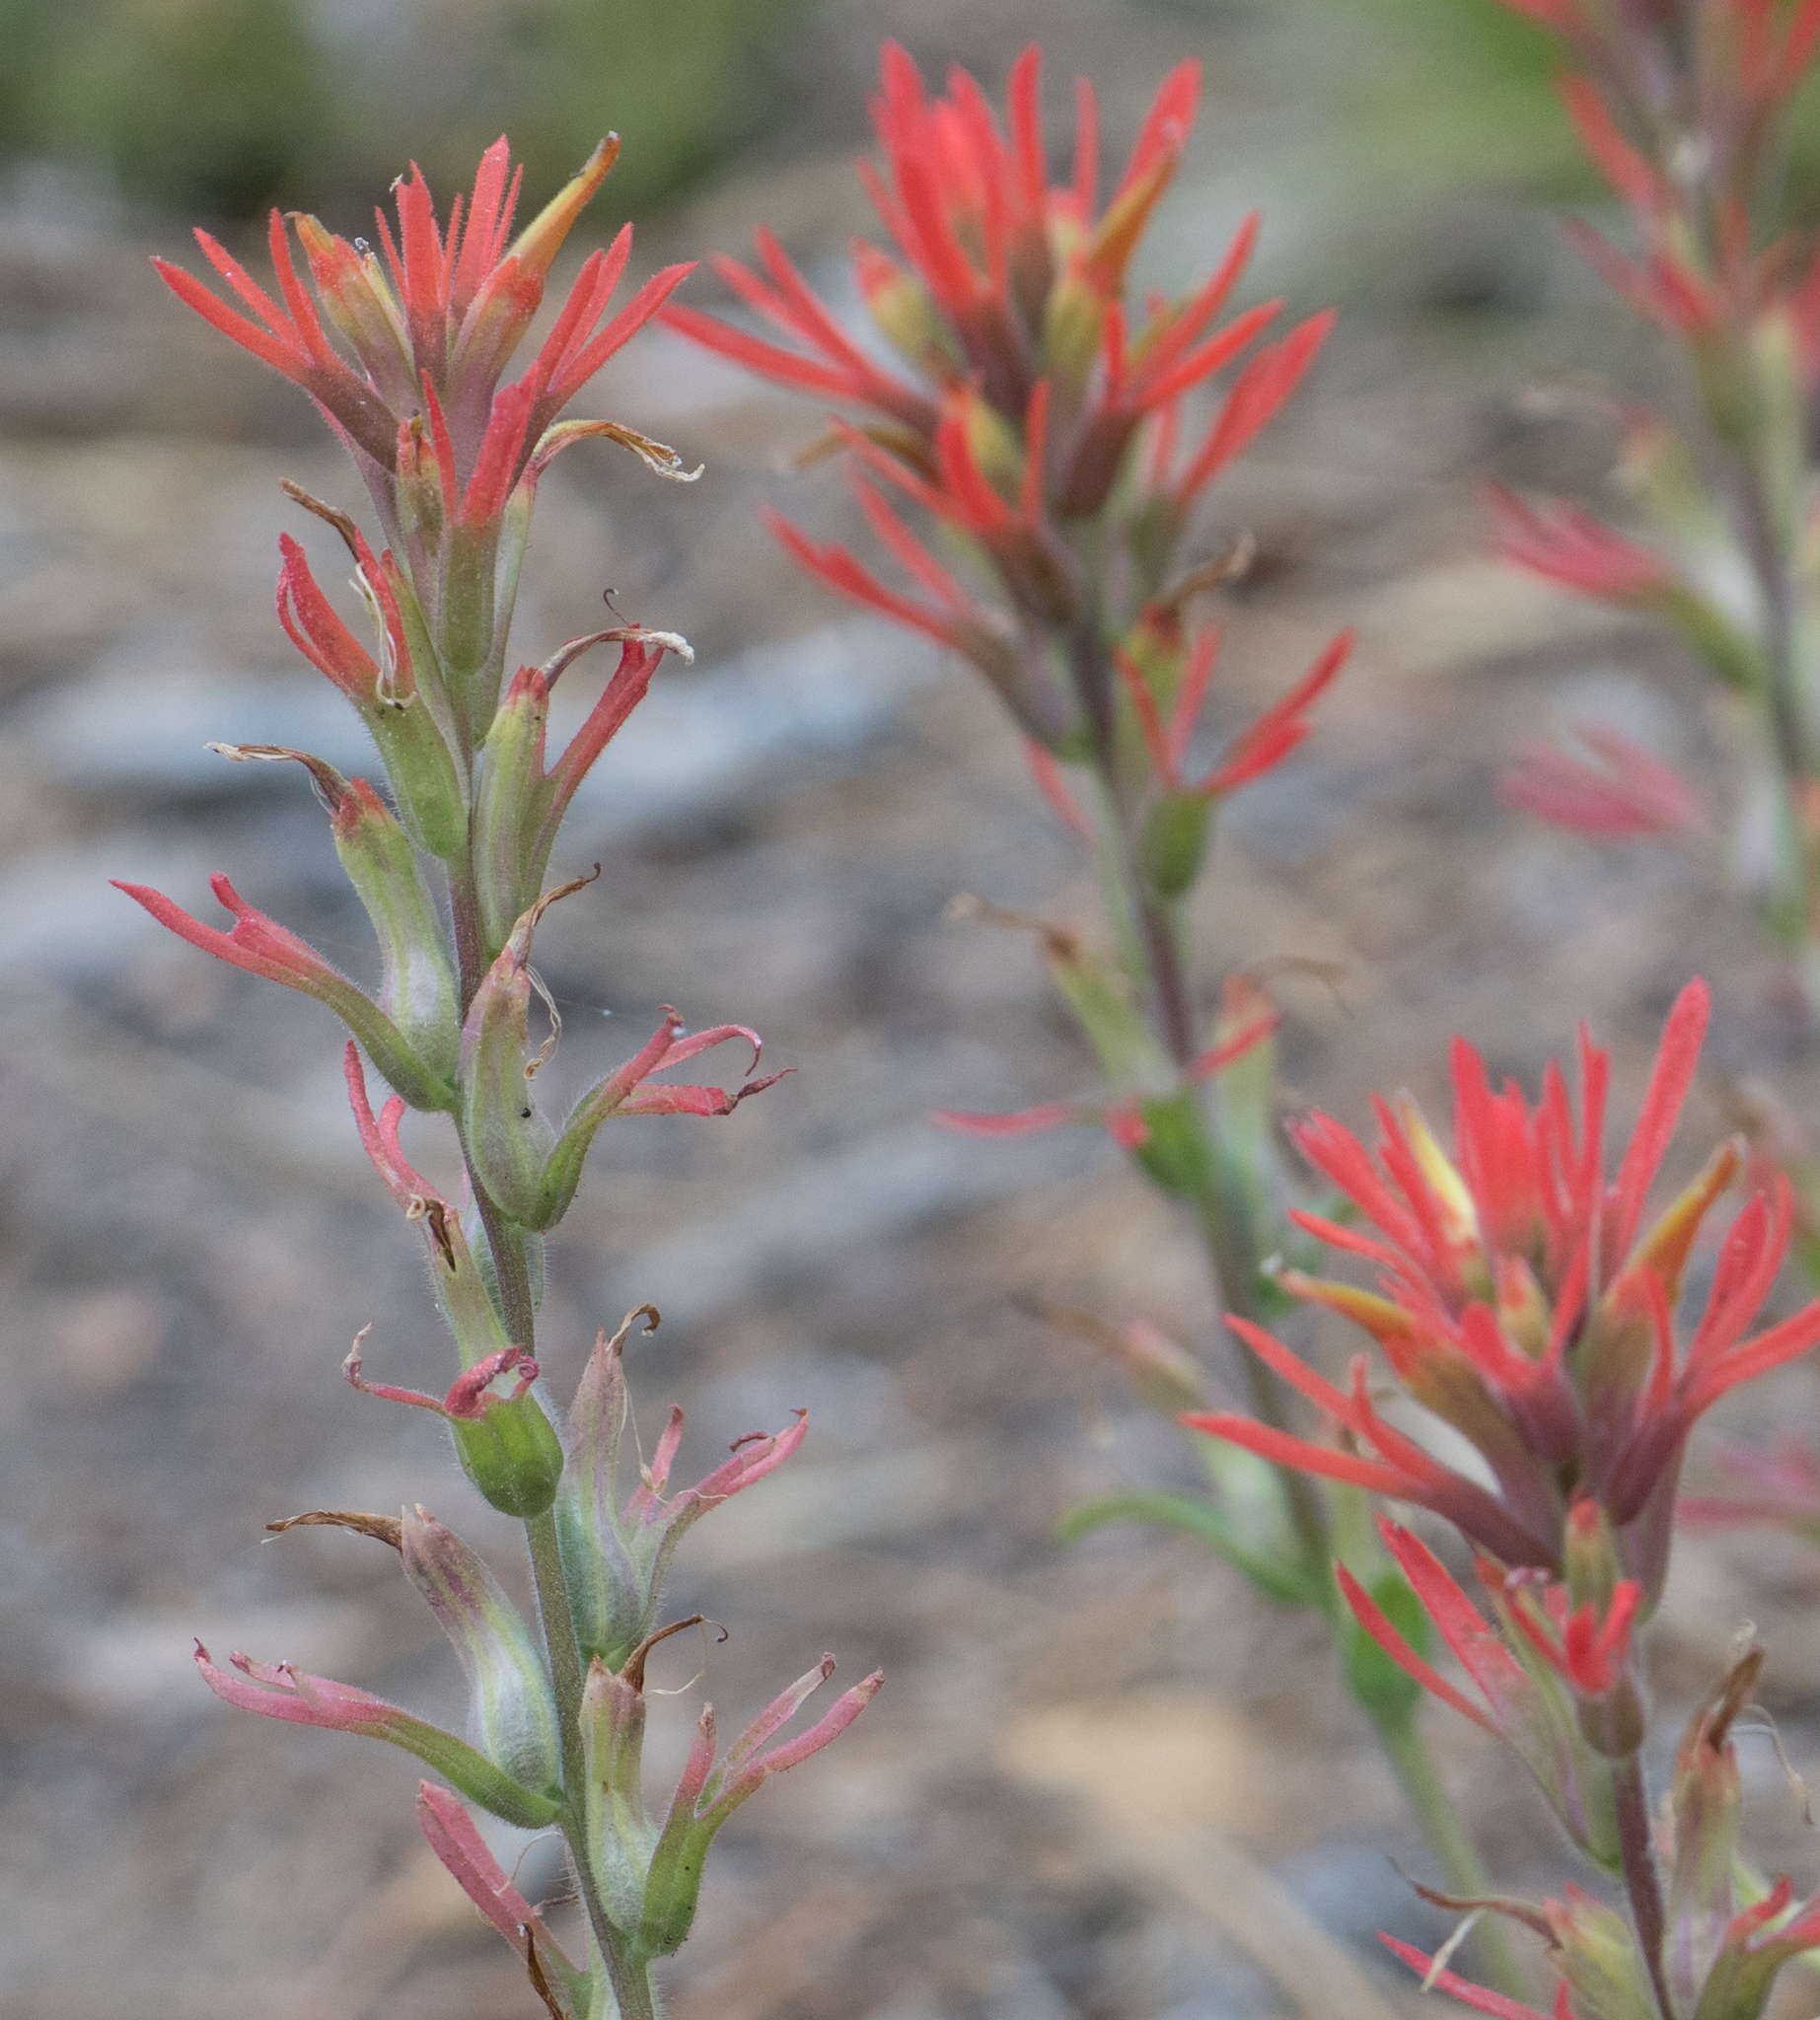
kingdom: Plantae
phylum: Tracheophyta
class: Magnoliopsida
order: Lamiales
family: Orobanchaceae
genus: Castilleja
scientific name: Castilleja montigena
